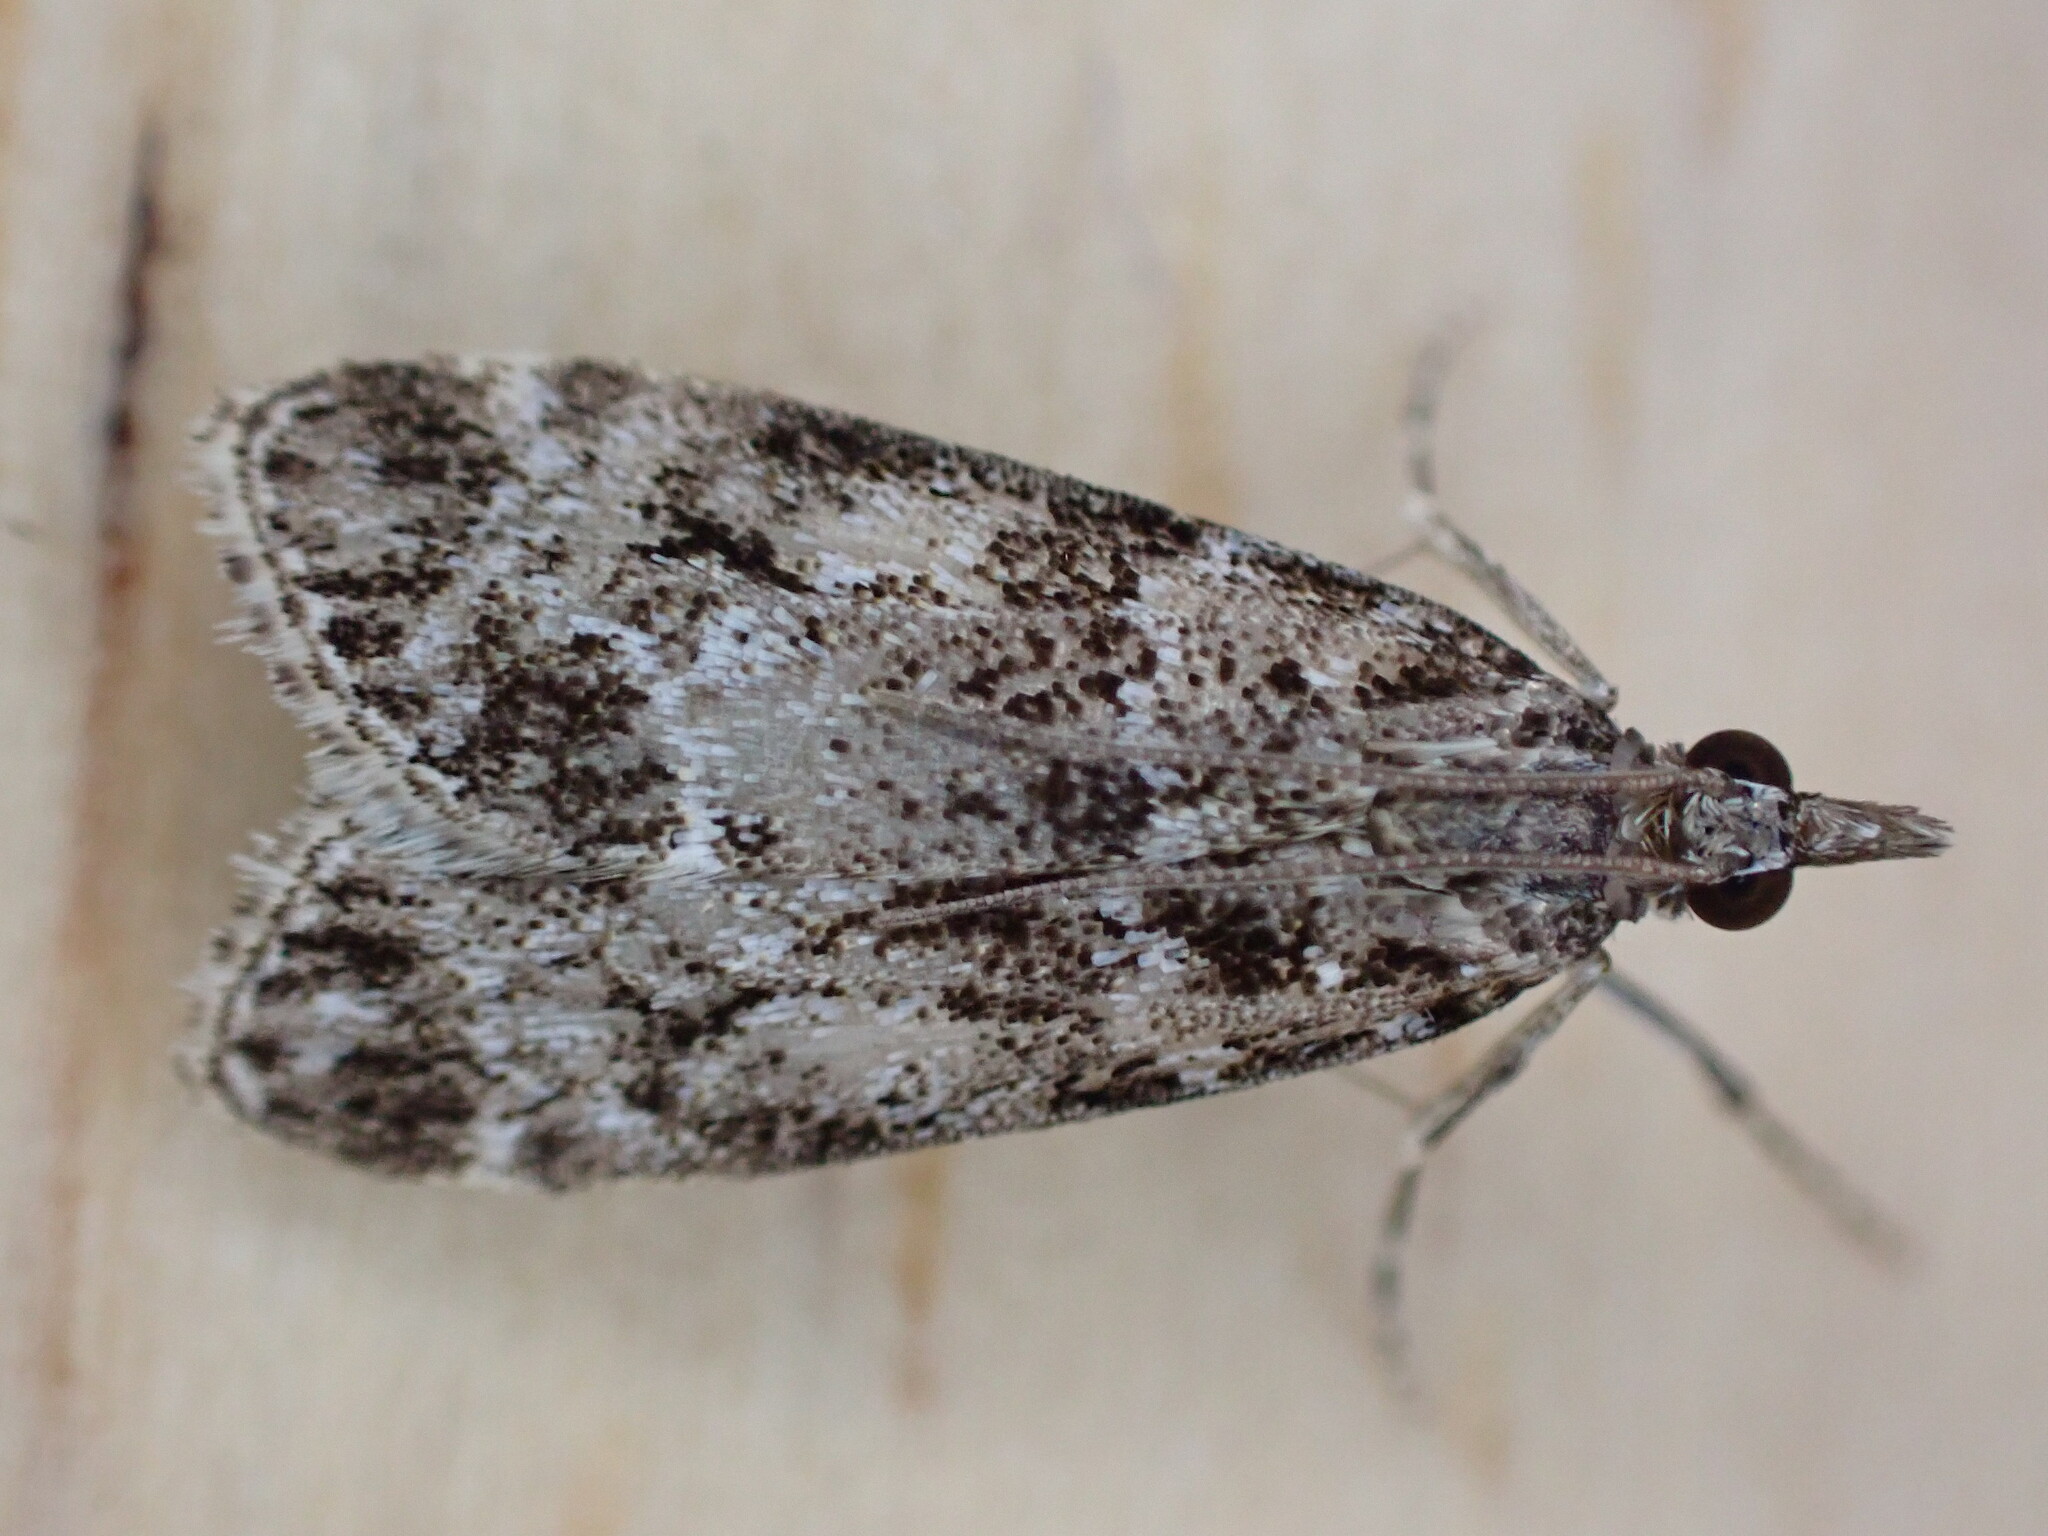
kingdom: Animalia
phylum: Arthropoda
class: Insecta
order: Lepidoptera
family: Crambidae
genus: Eudonia
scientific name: Eudonia mercurella
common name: Small grey
